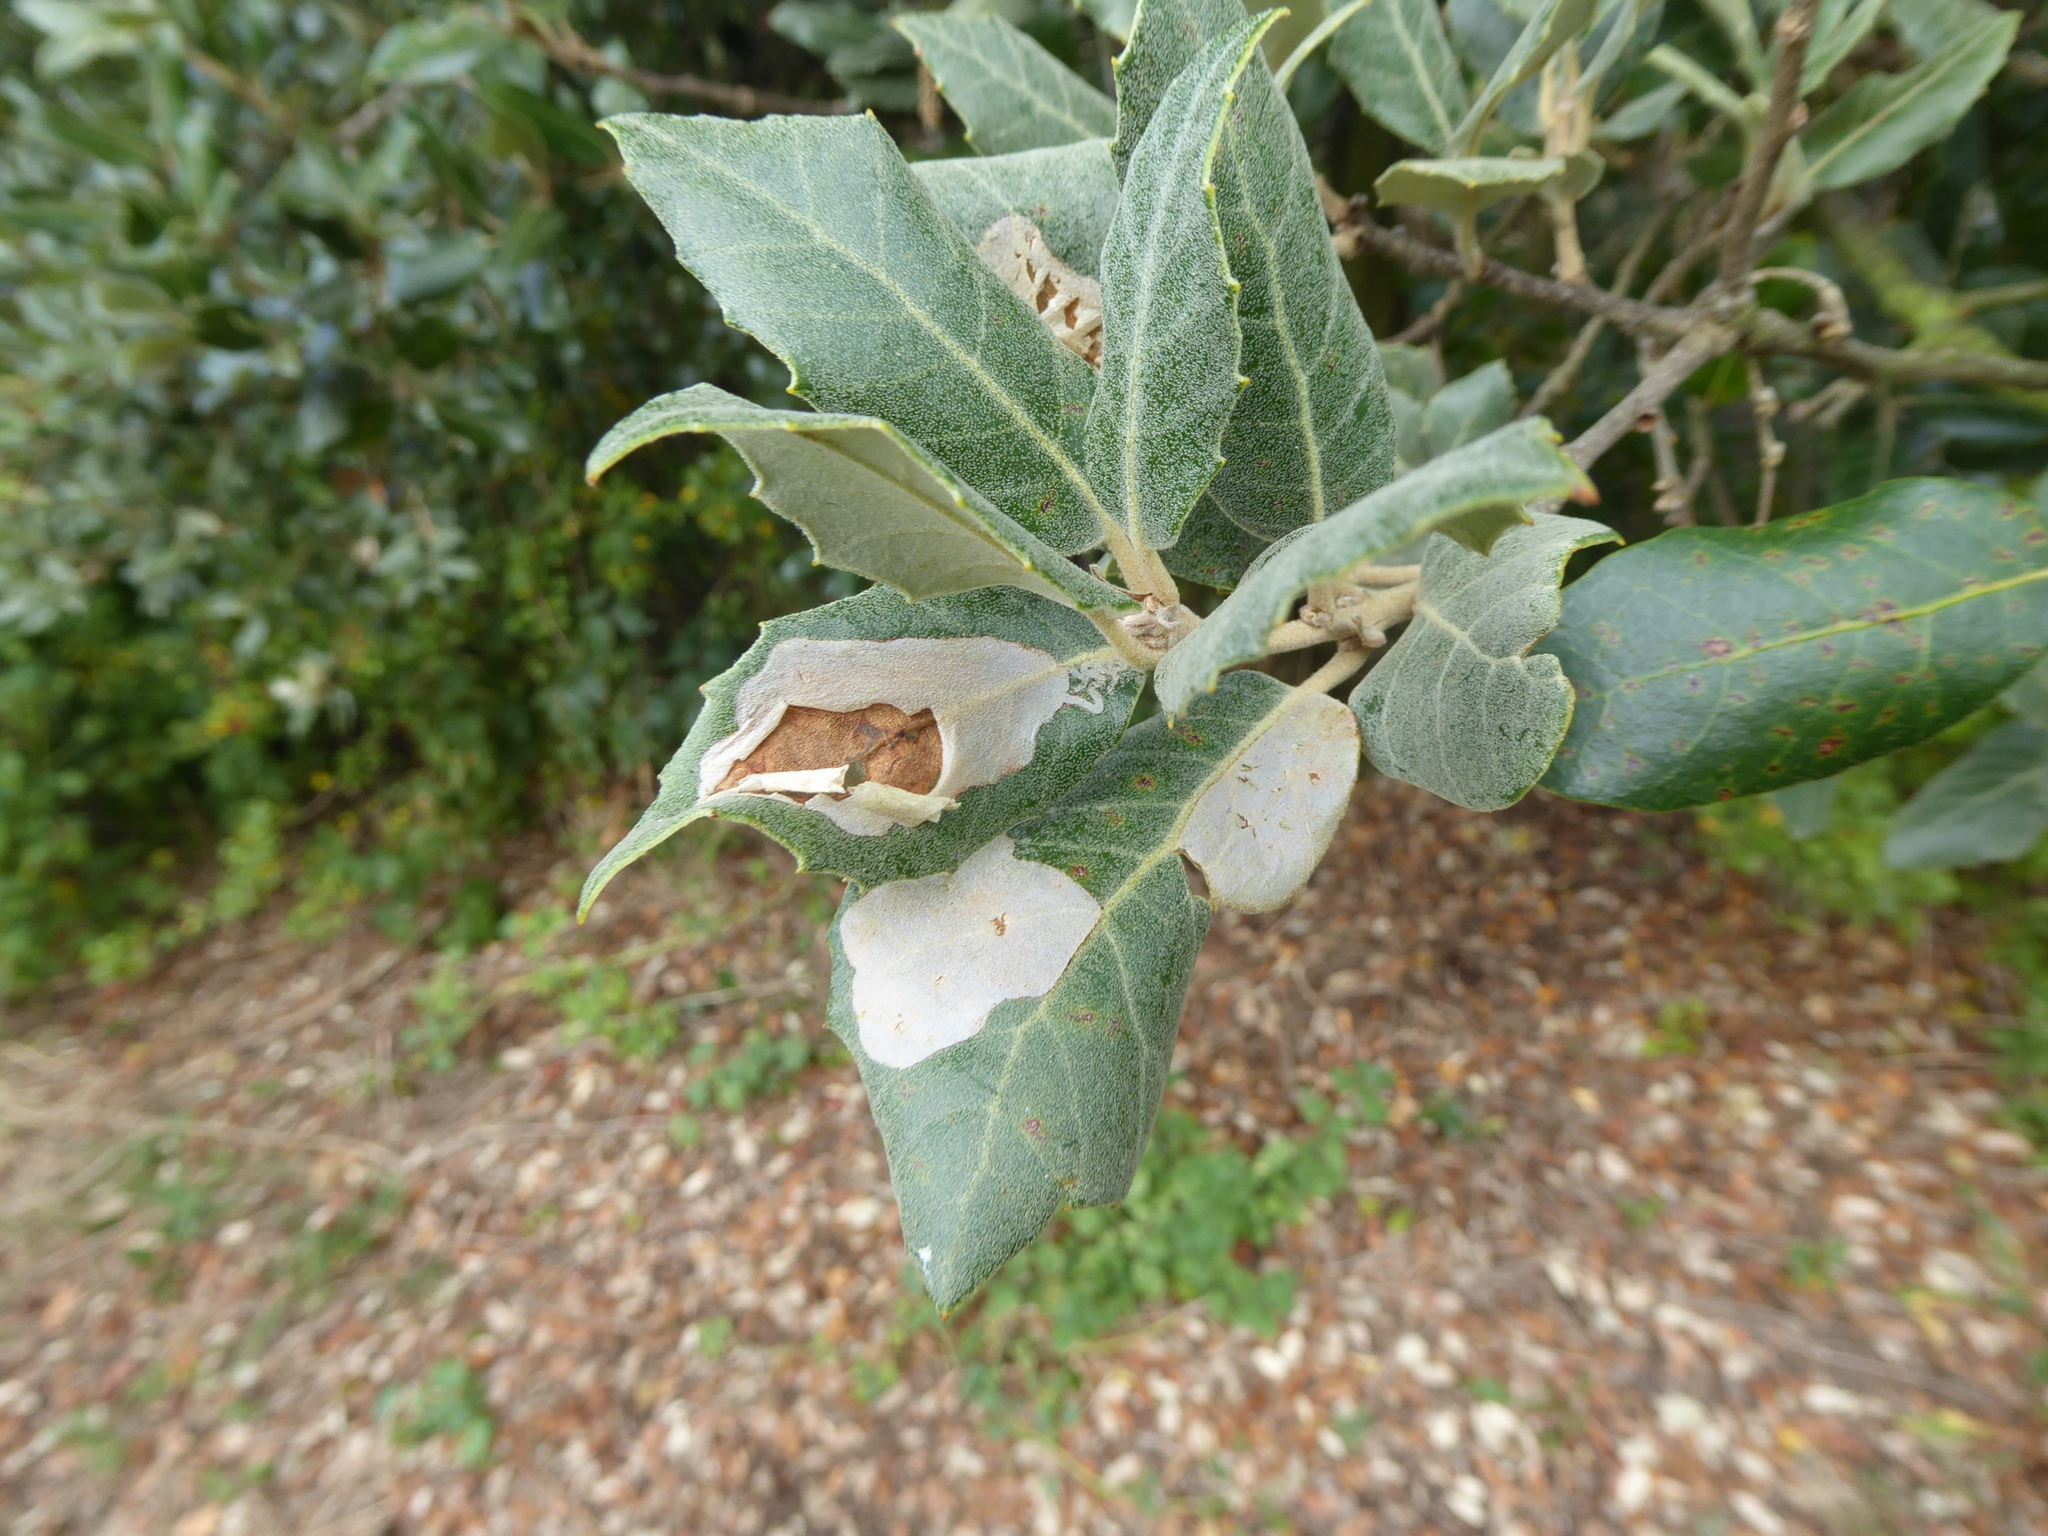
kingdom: Animalia
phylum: Arthropoda
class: Insecta
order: Lepidoptera
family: Gracillariidae
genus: Acrocercops
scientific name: Acrocercops brongniardella
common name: Brown oak slender
